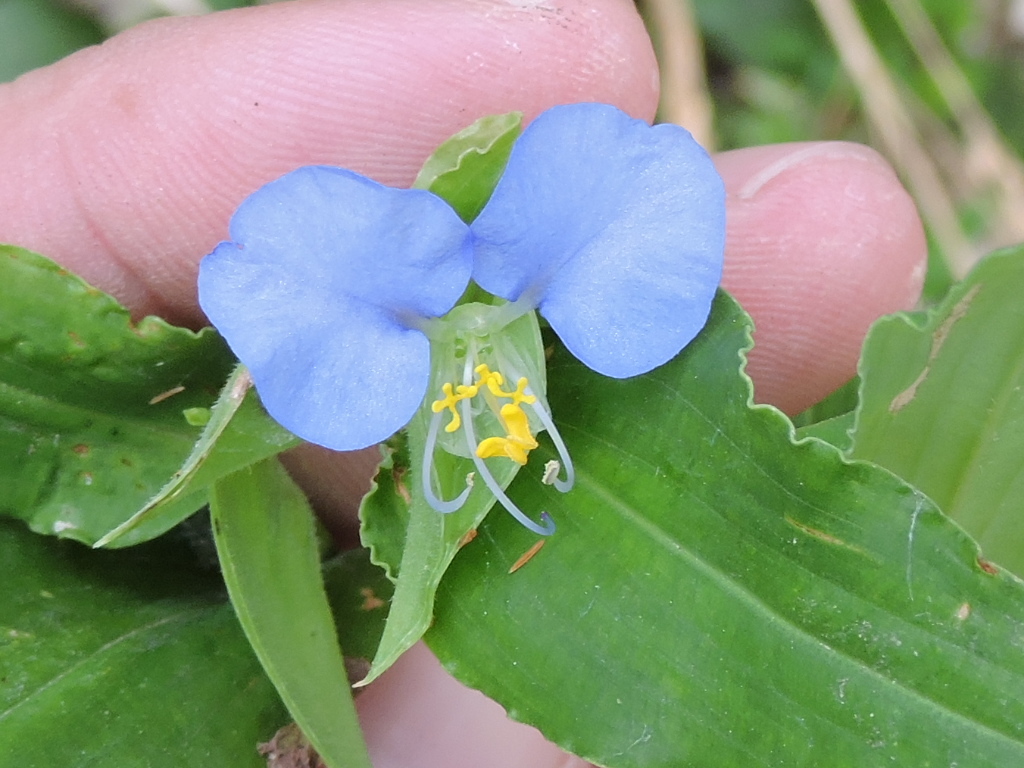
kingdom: Plantae
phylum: Tracheophyta
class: Liliopsida
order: Commelinales
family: Commelinaceae
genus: Commelina
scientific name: Commelina erecta
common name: Blousel blommetjie
